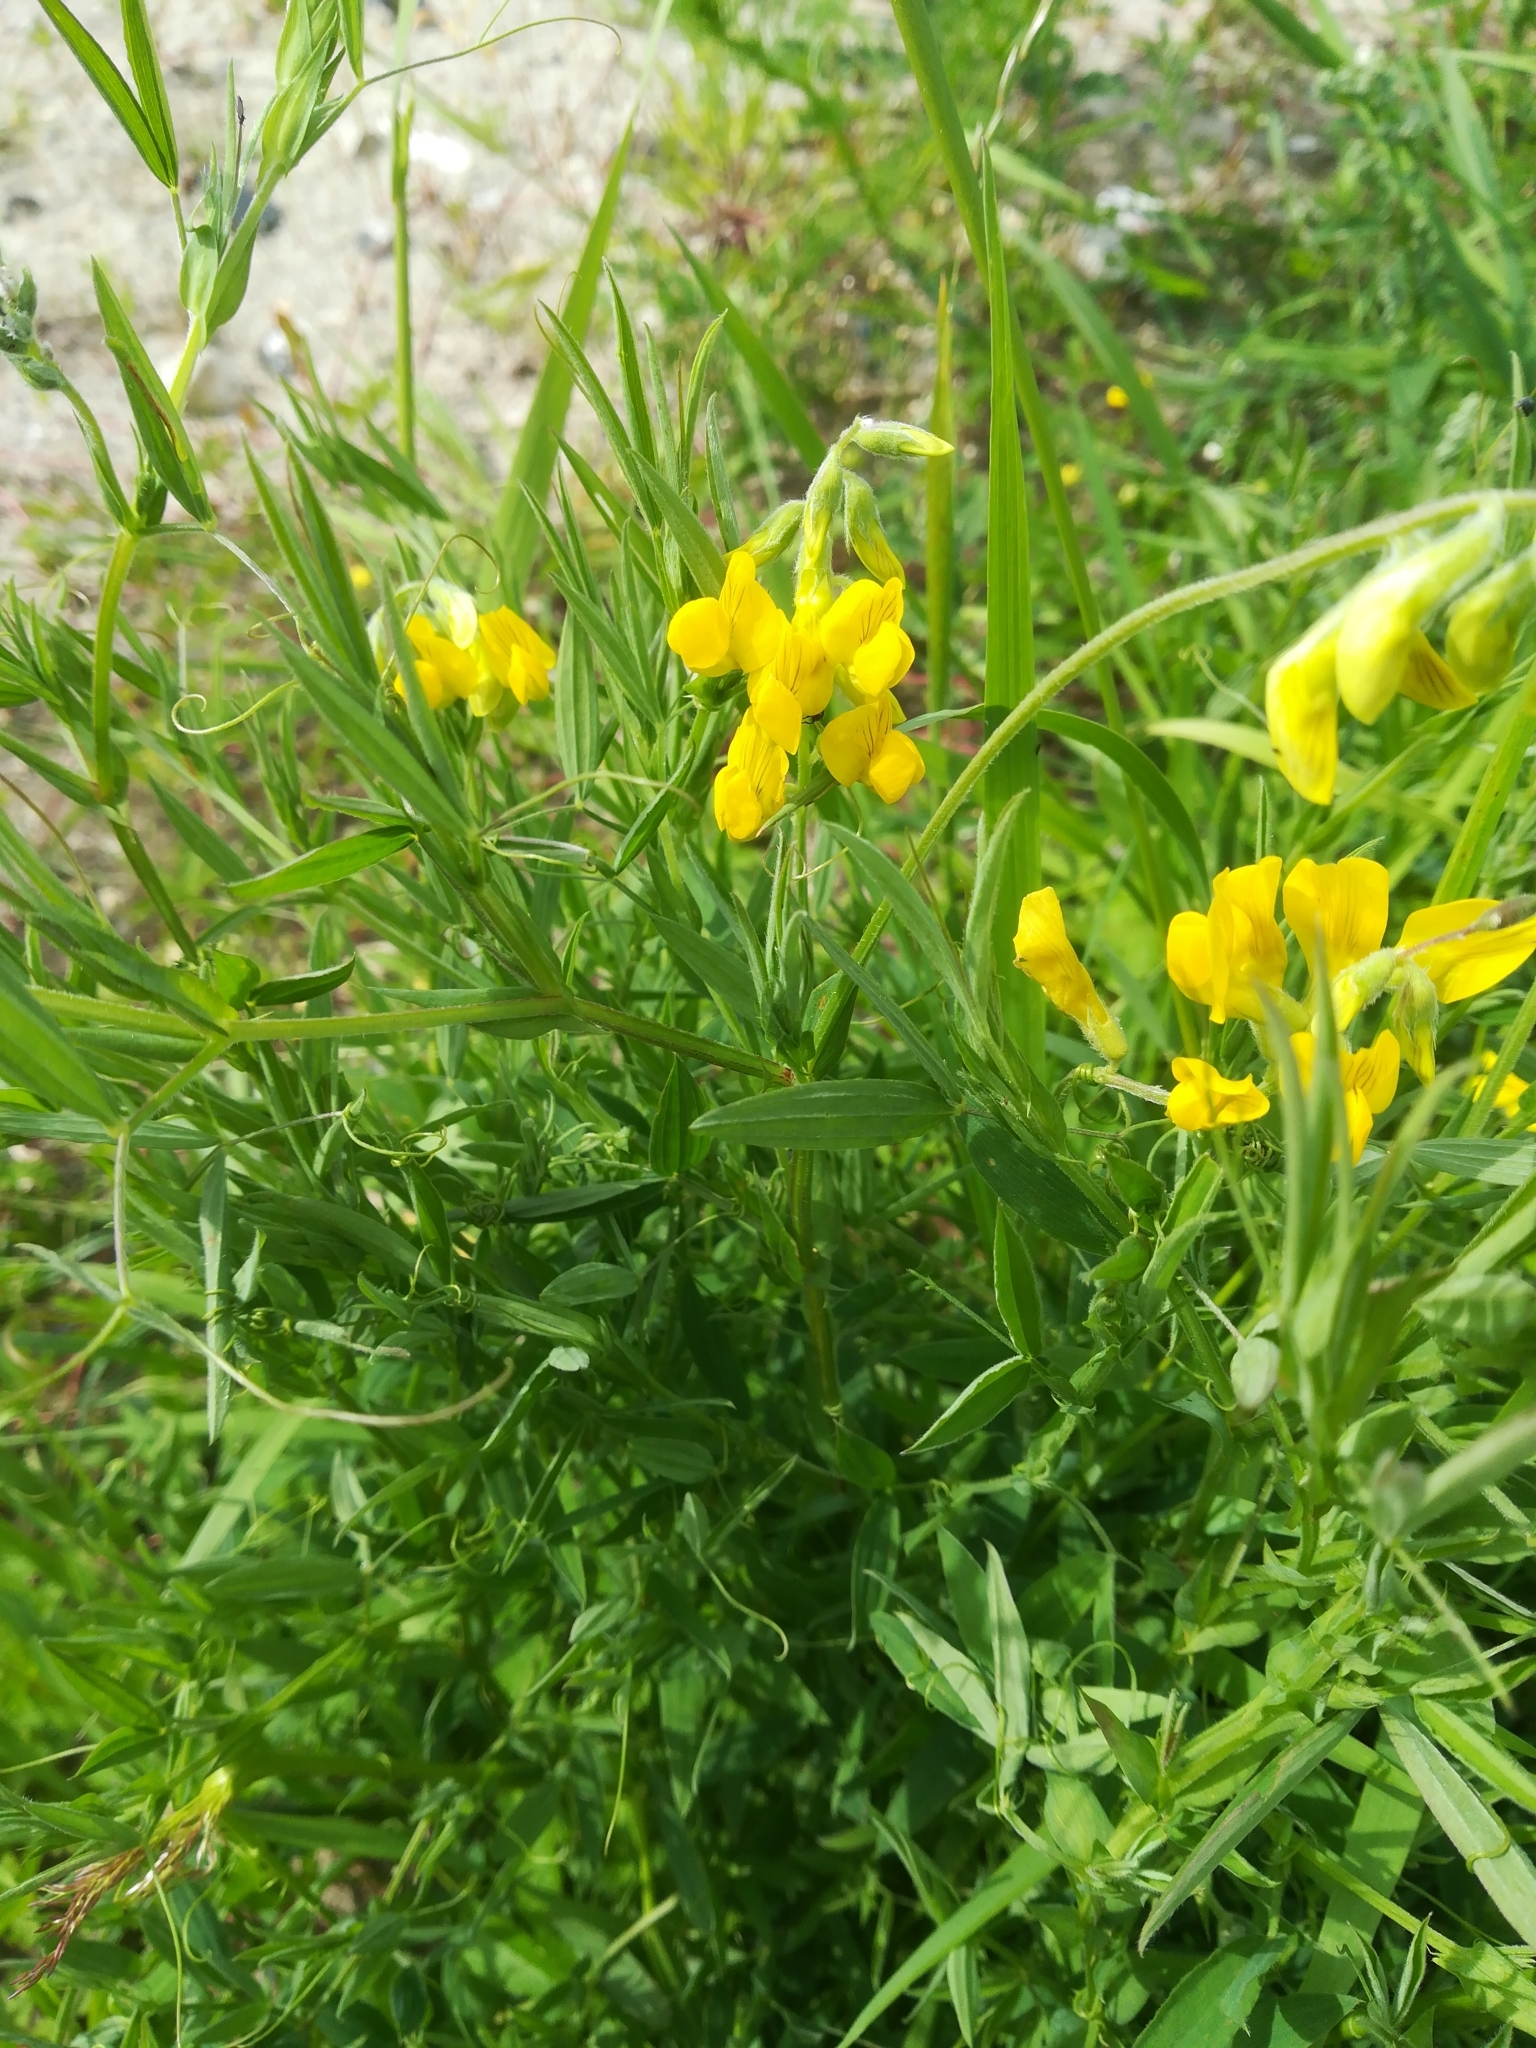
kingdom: Plantae
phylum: Tracheophyta
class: Magnoliopsida
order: Fabales
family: Fabaceae
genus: Lathyrus
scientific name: Lathyrus pratensis
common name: Meadow vetchling
